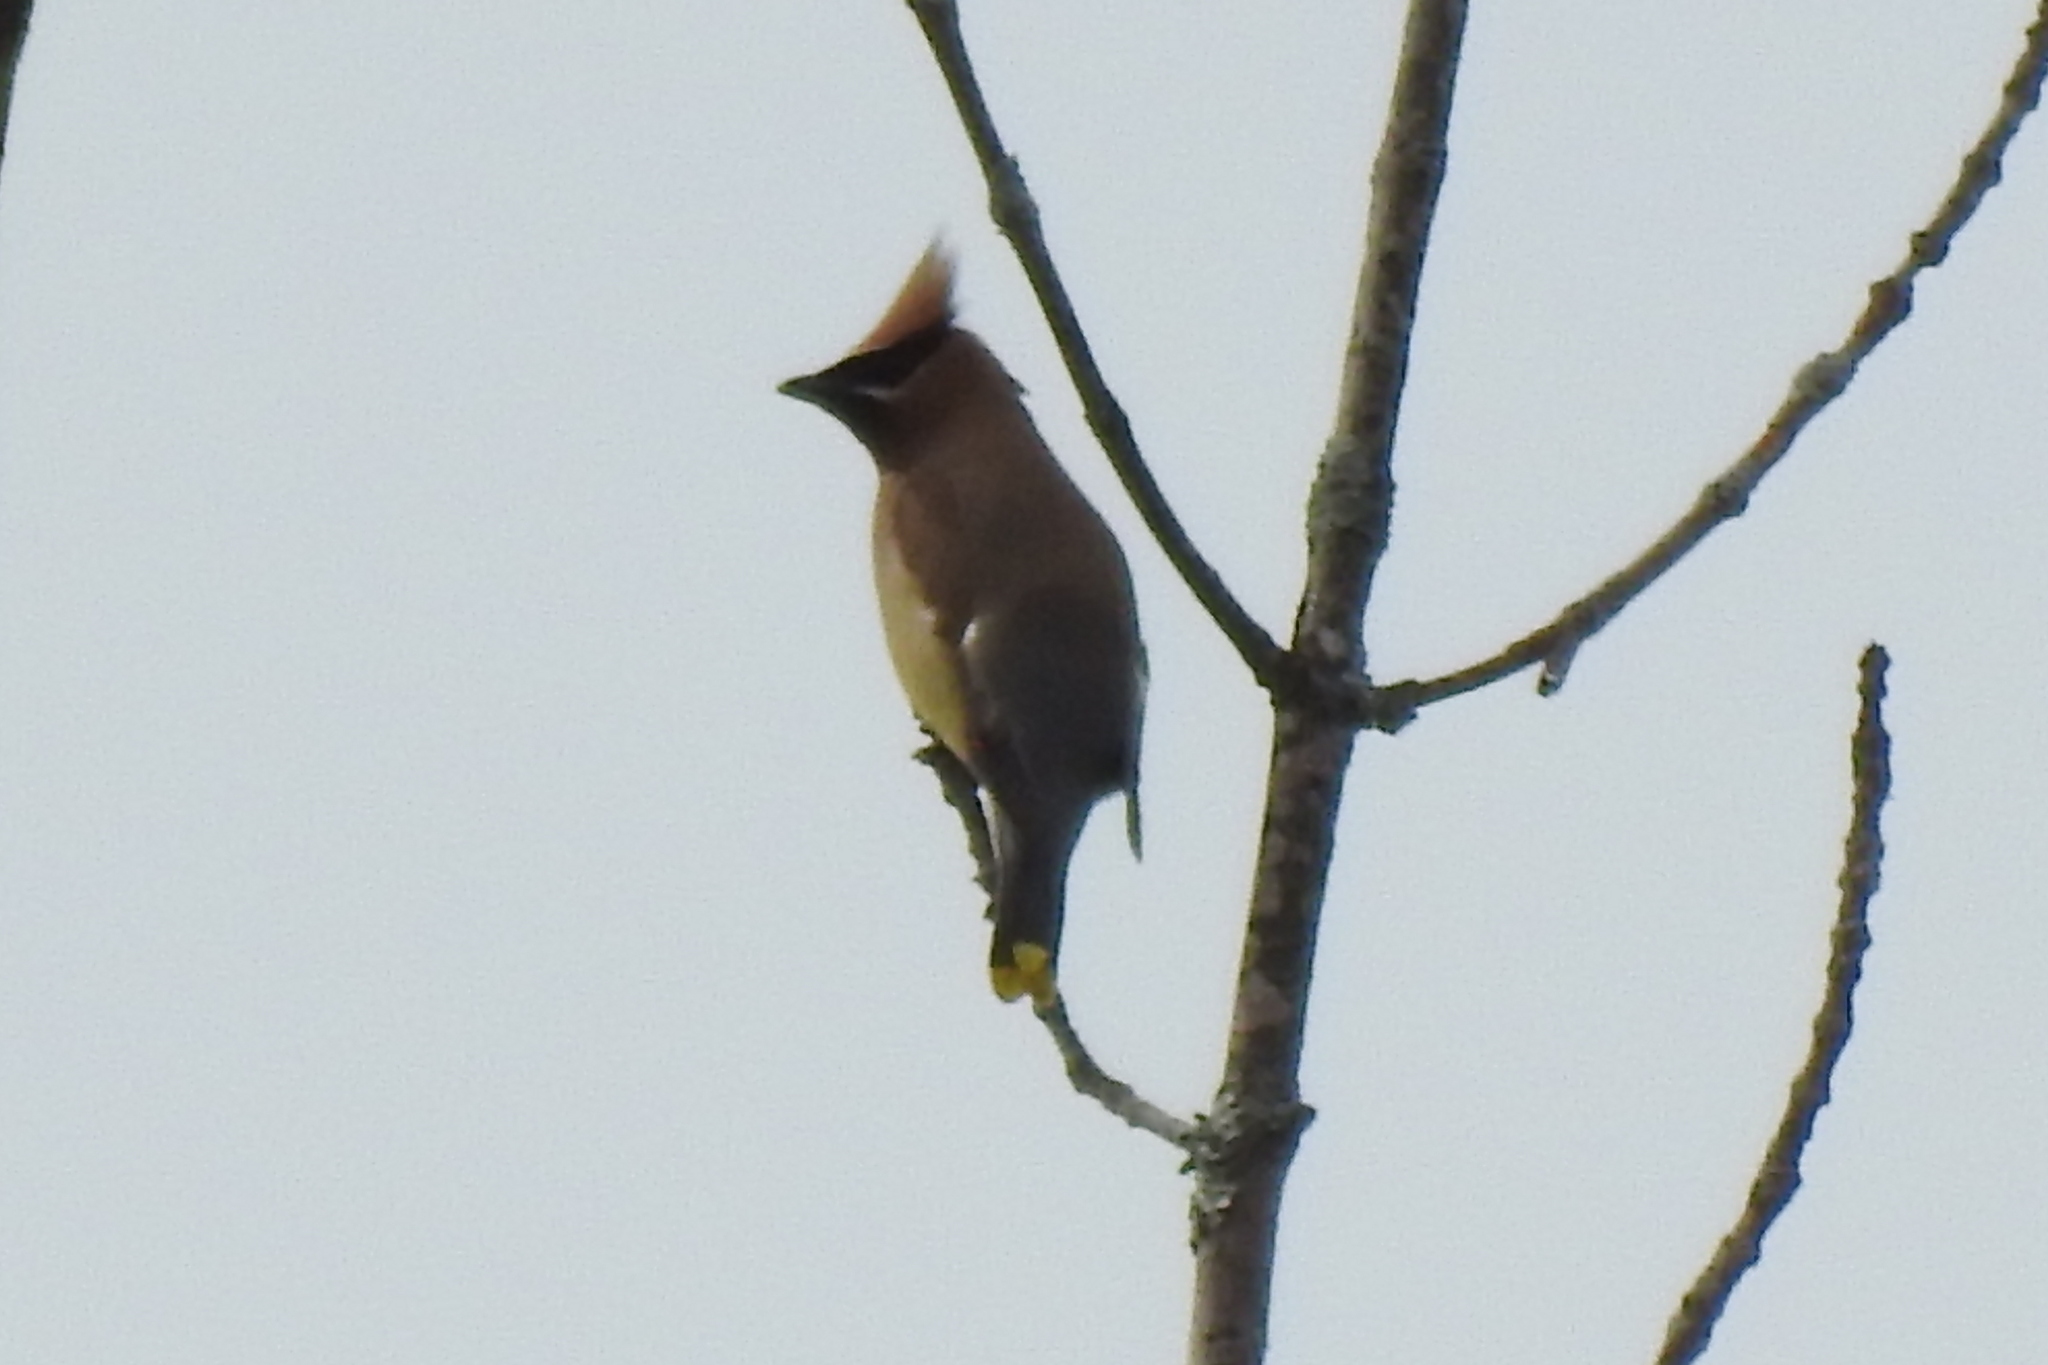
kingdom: Animalia
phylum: Chordata
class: Aves
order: Passeriformes
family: Bombycillidae
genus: Bombycilla
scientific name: Bombycilla cedrorum
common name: Cedar waxwing
